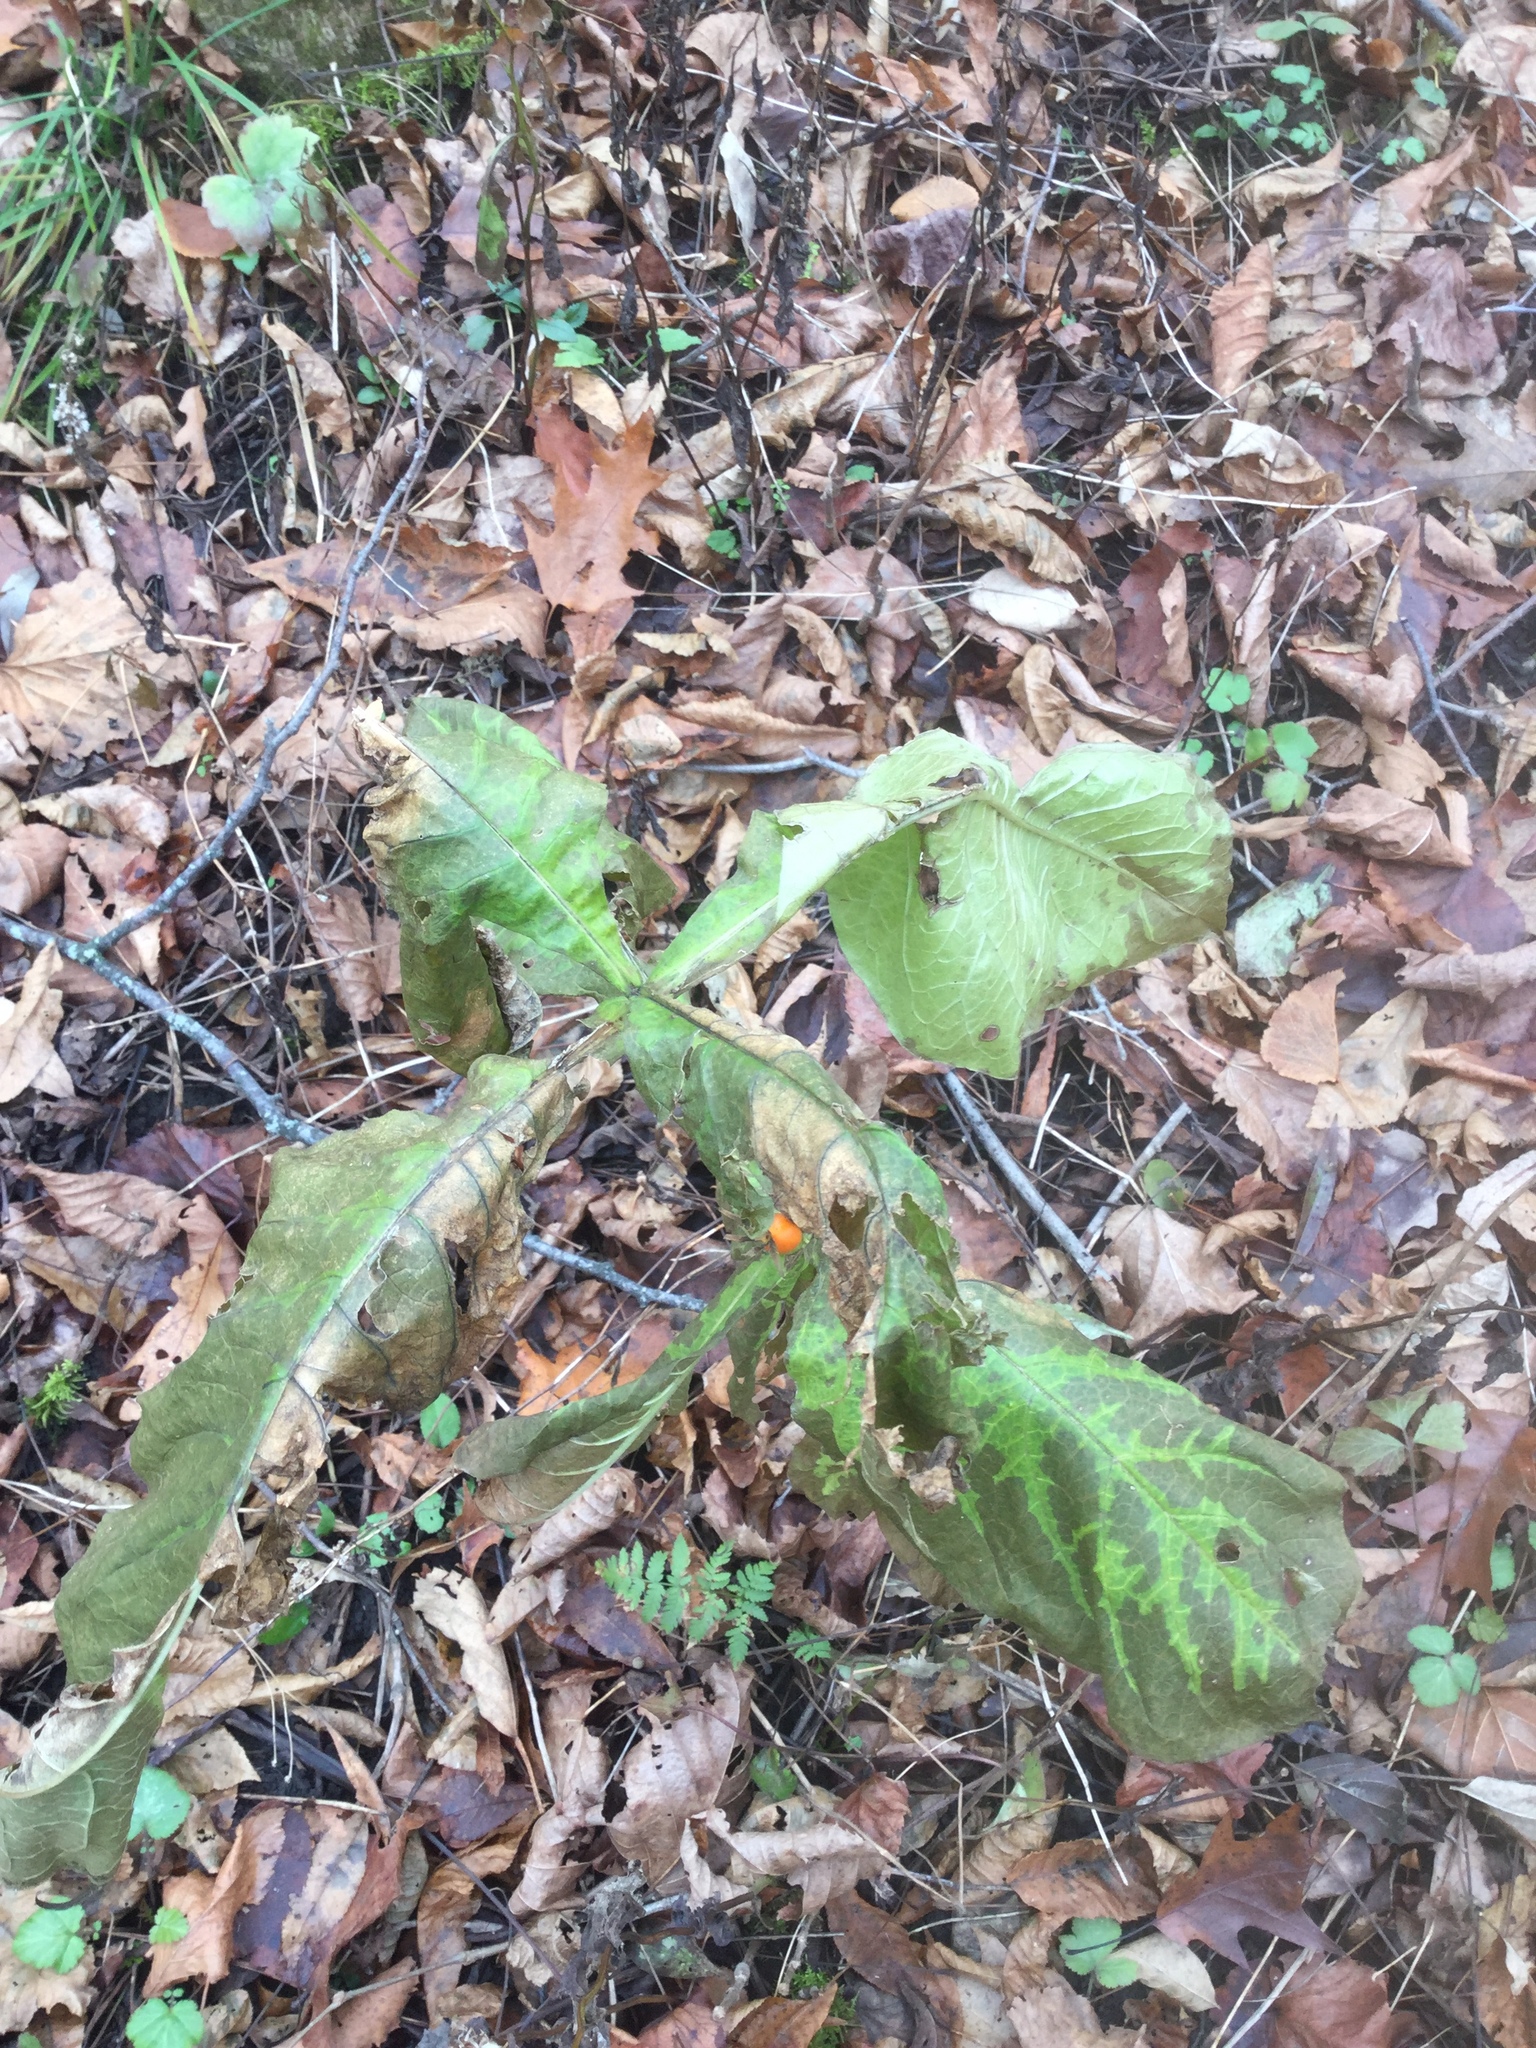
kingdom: Plantae
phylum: Tracheophyta
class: Magnoliopsida
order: Dipsacales
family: Caprifoliaceae
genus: Triosteum
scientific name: Triosteum aurantiacum
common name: Coffee tinker's-weed
